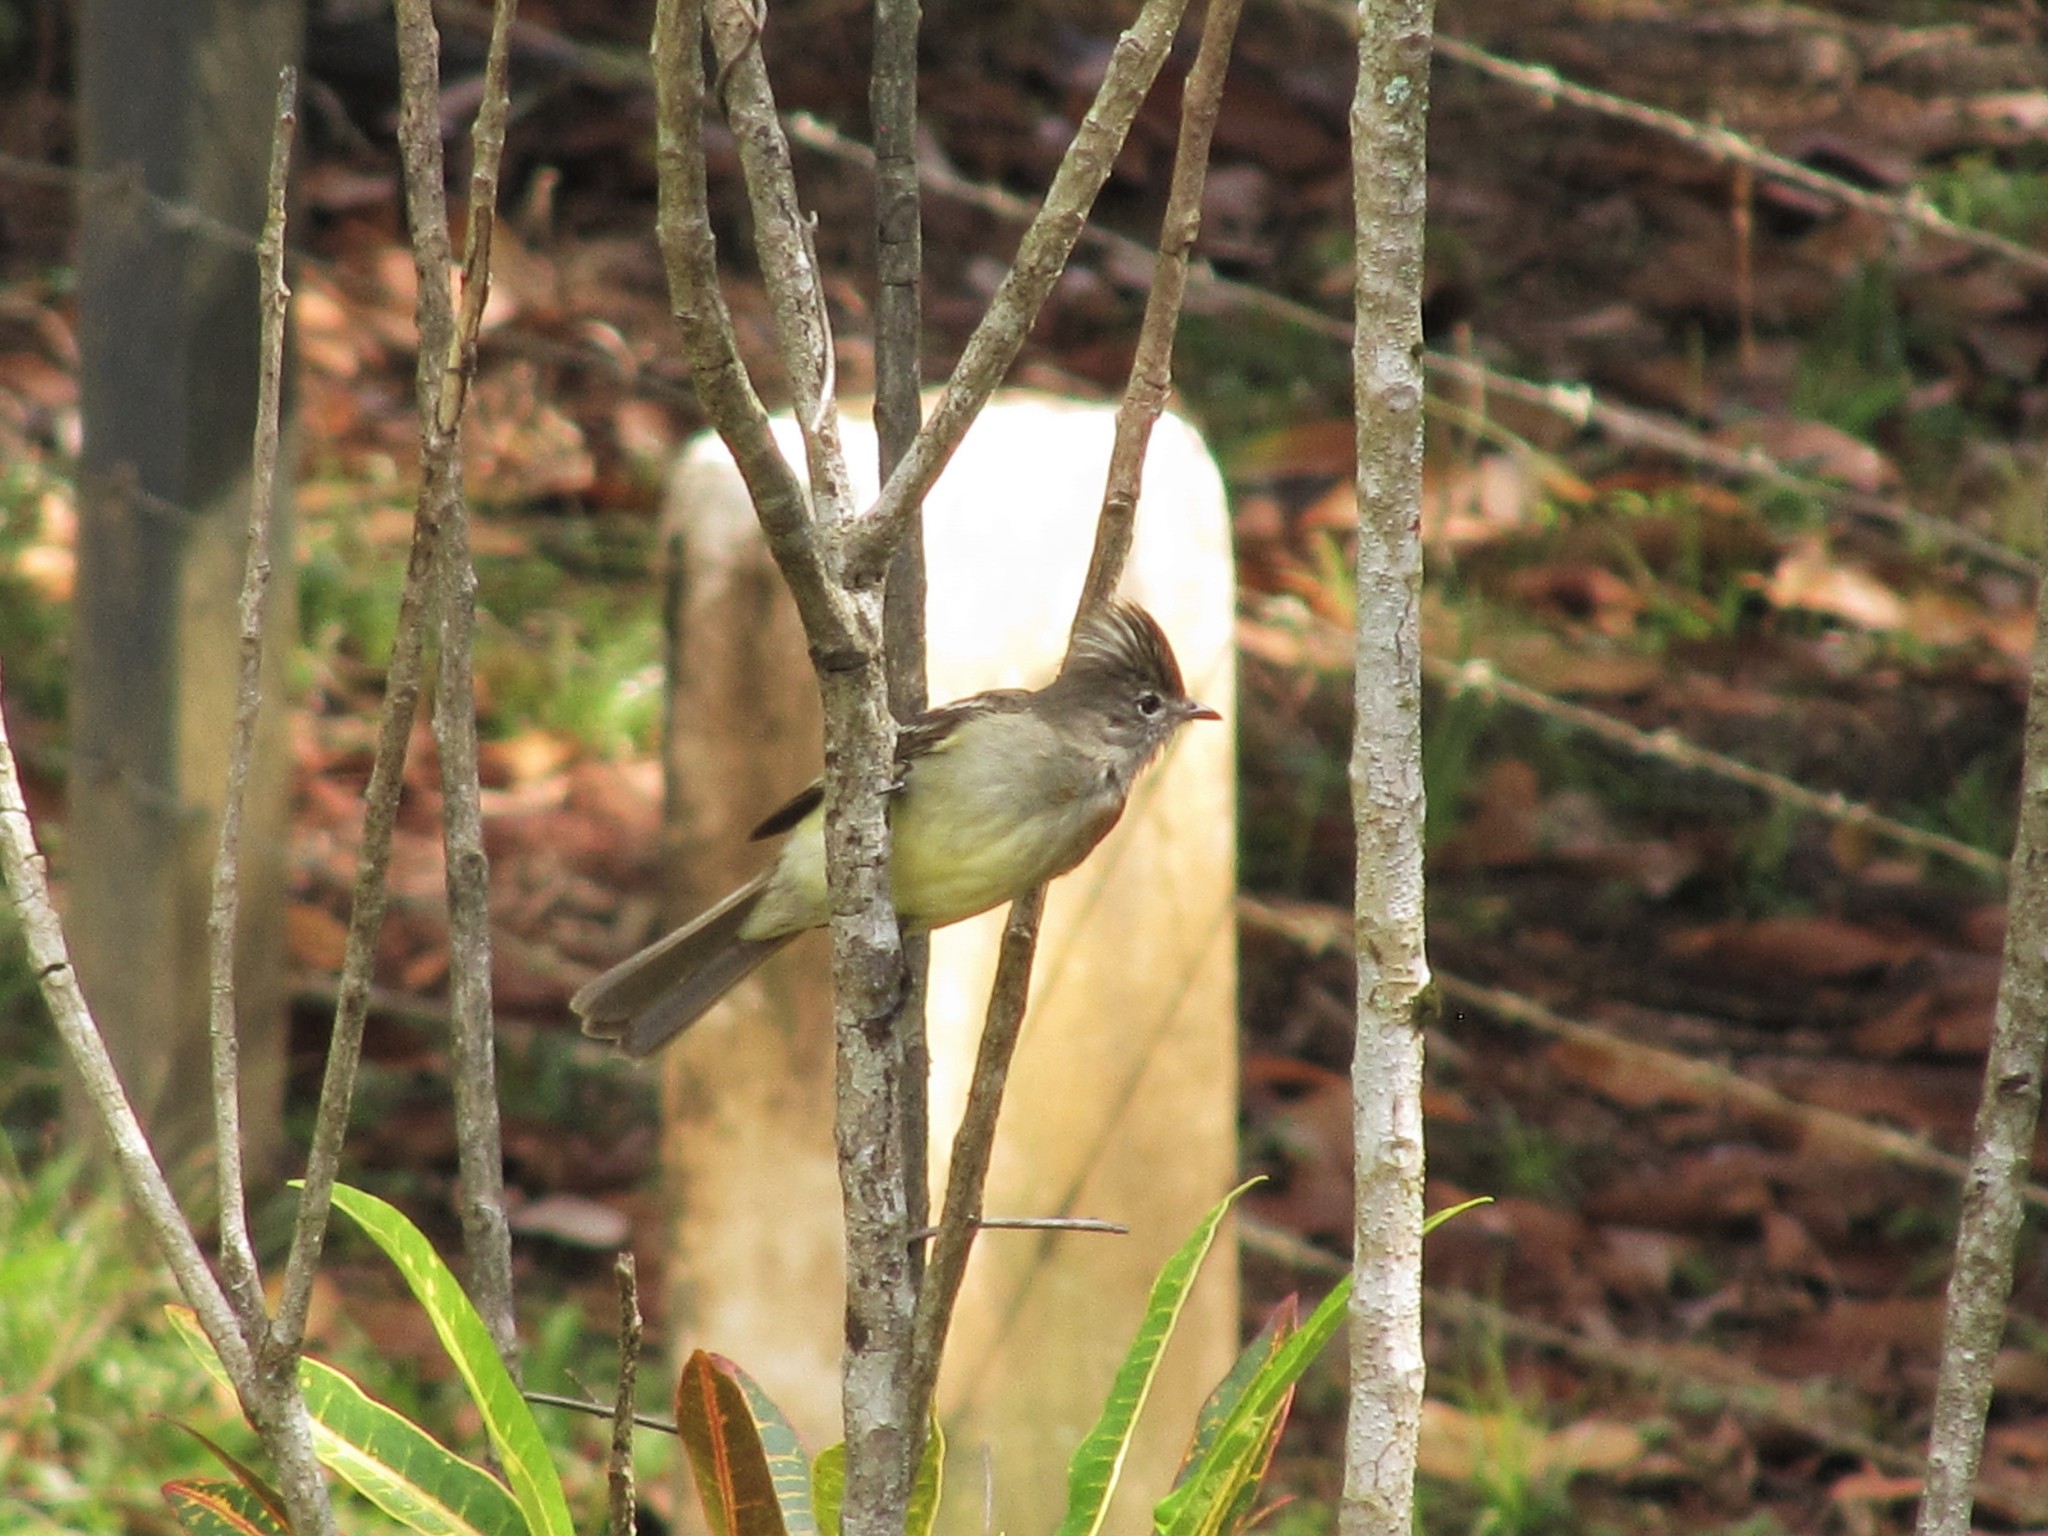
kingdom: Animalia
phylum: Chordata
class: Aves
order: Passeriformes
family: Tyrannidae
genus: Elaenia
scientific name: Elaenia flavogaster
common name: Yellow-bellied elaenia
